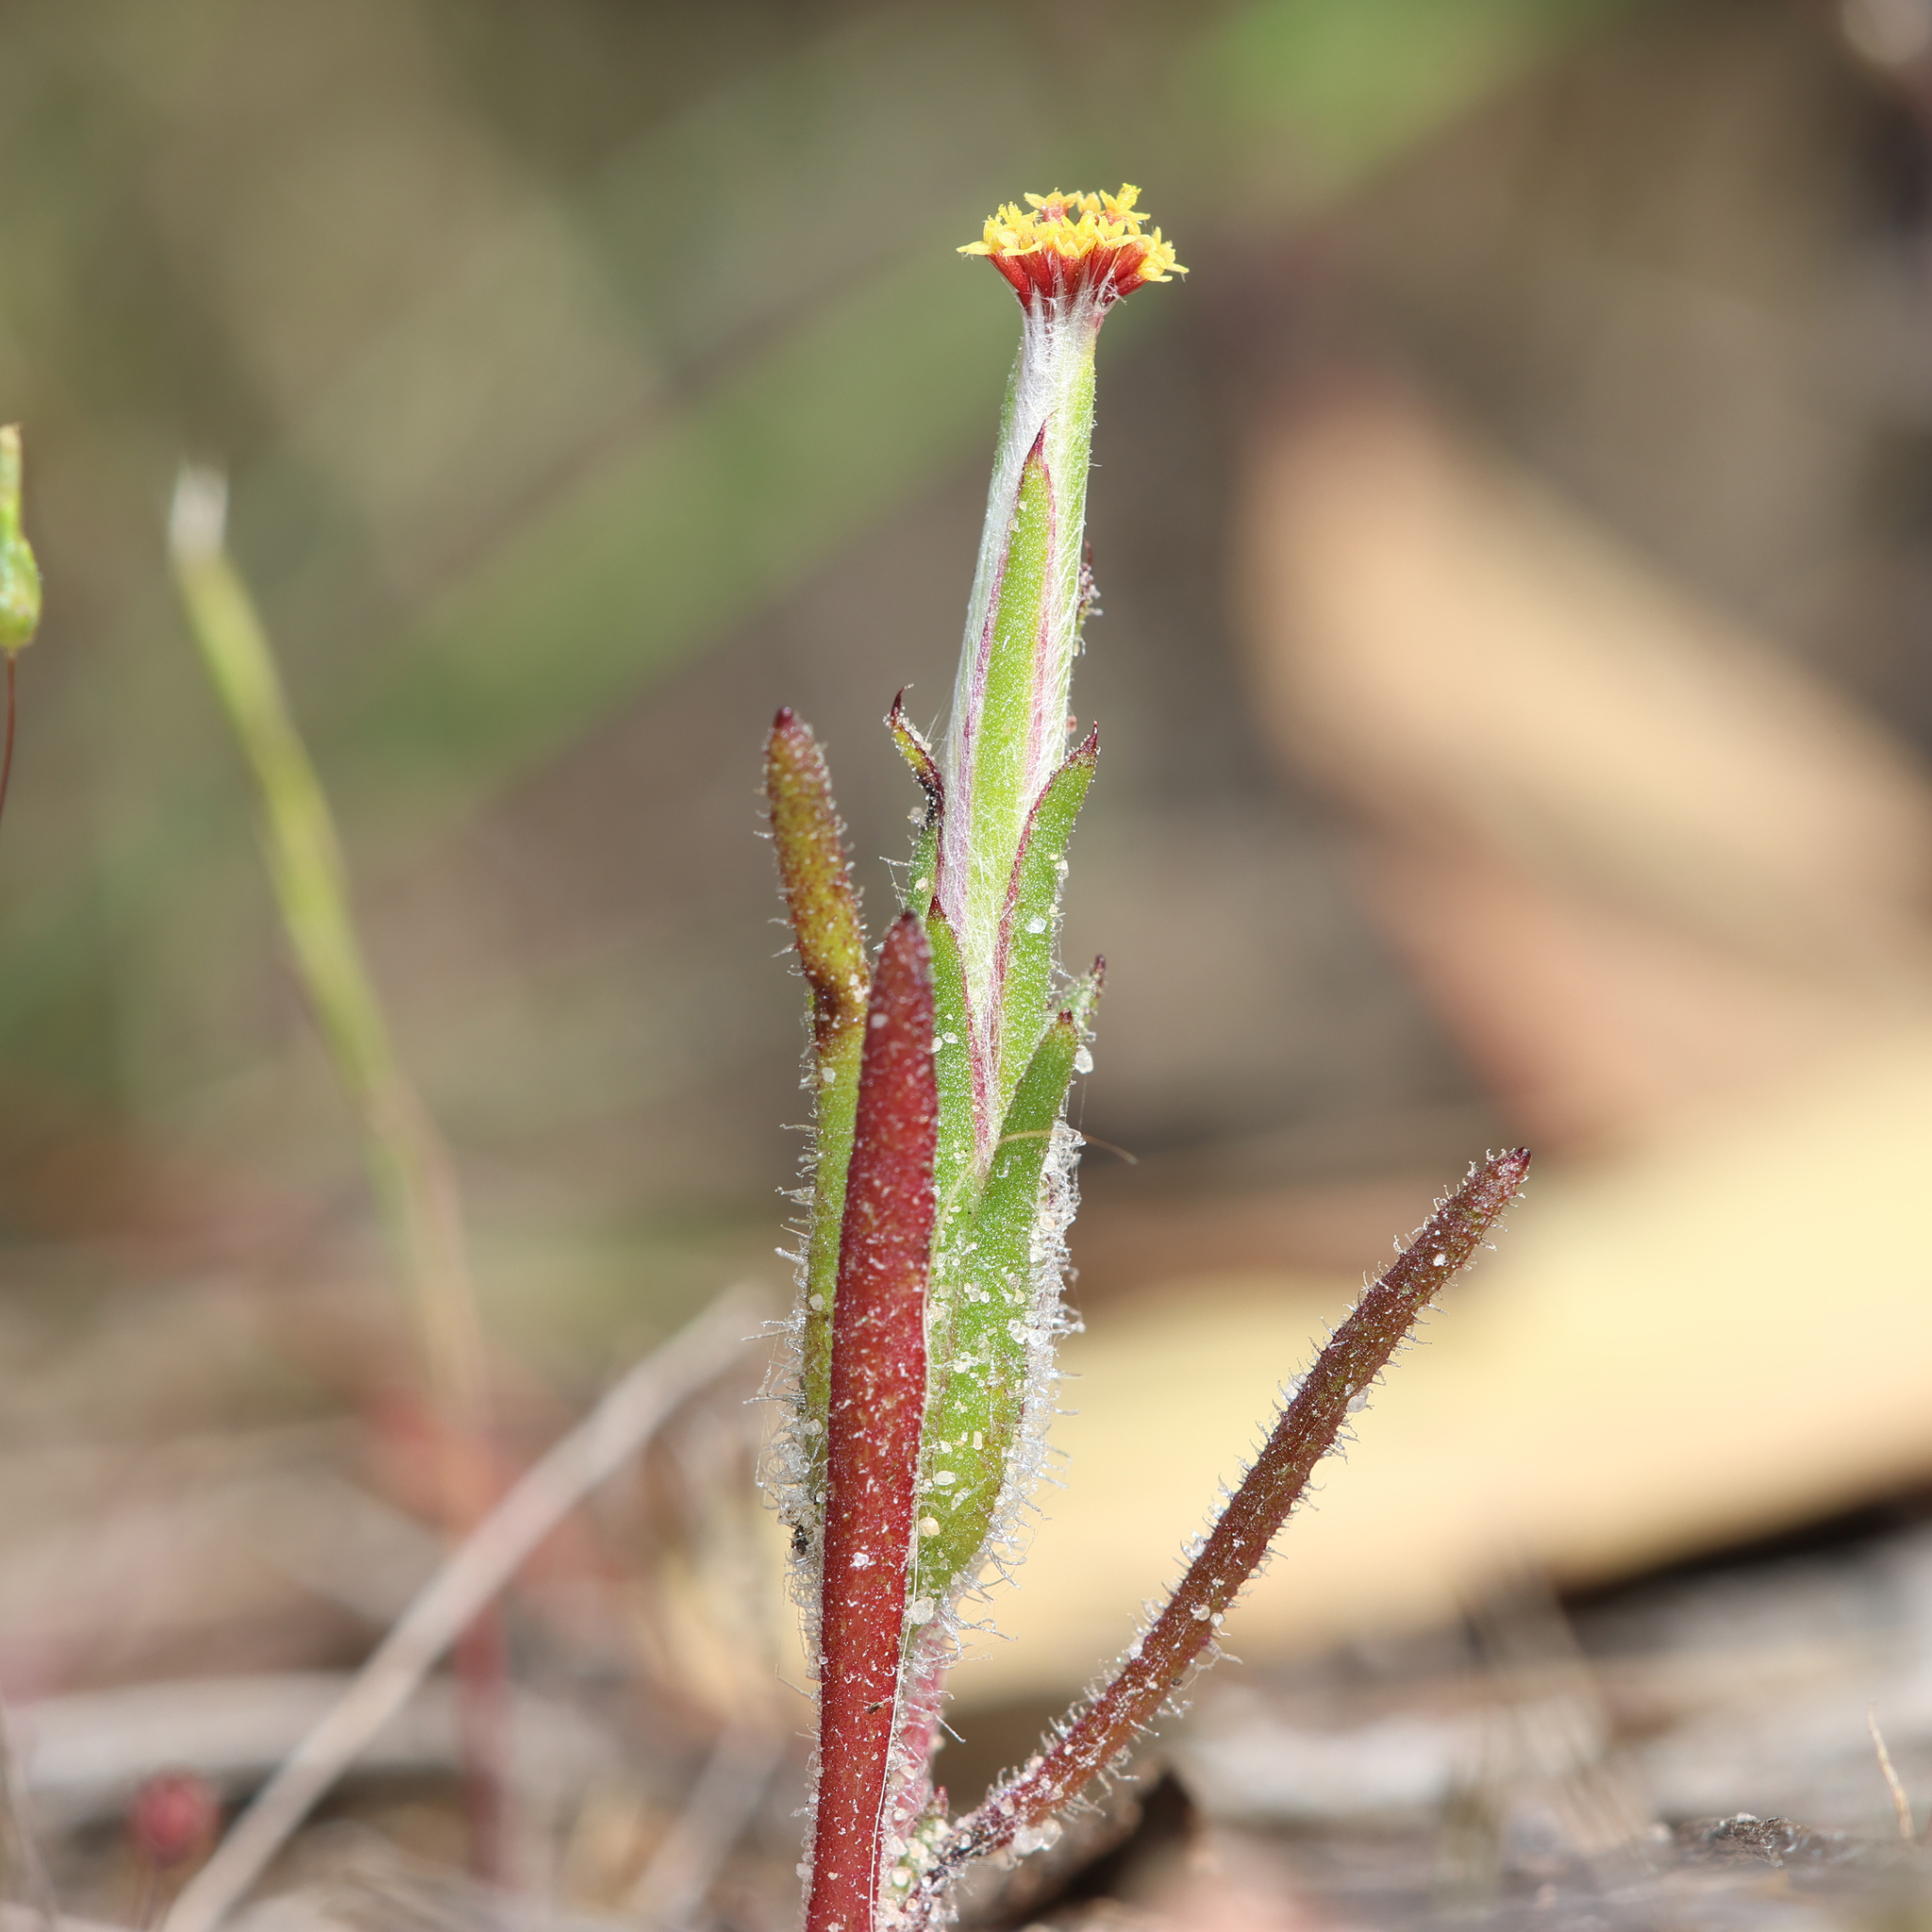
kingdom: Plantae
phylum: Tracheophyta
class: Magnoliopsida
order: Asterales
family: Asteraceae
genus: Podotheca
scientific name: Podotheca angustifolia
